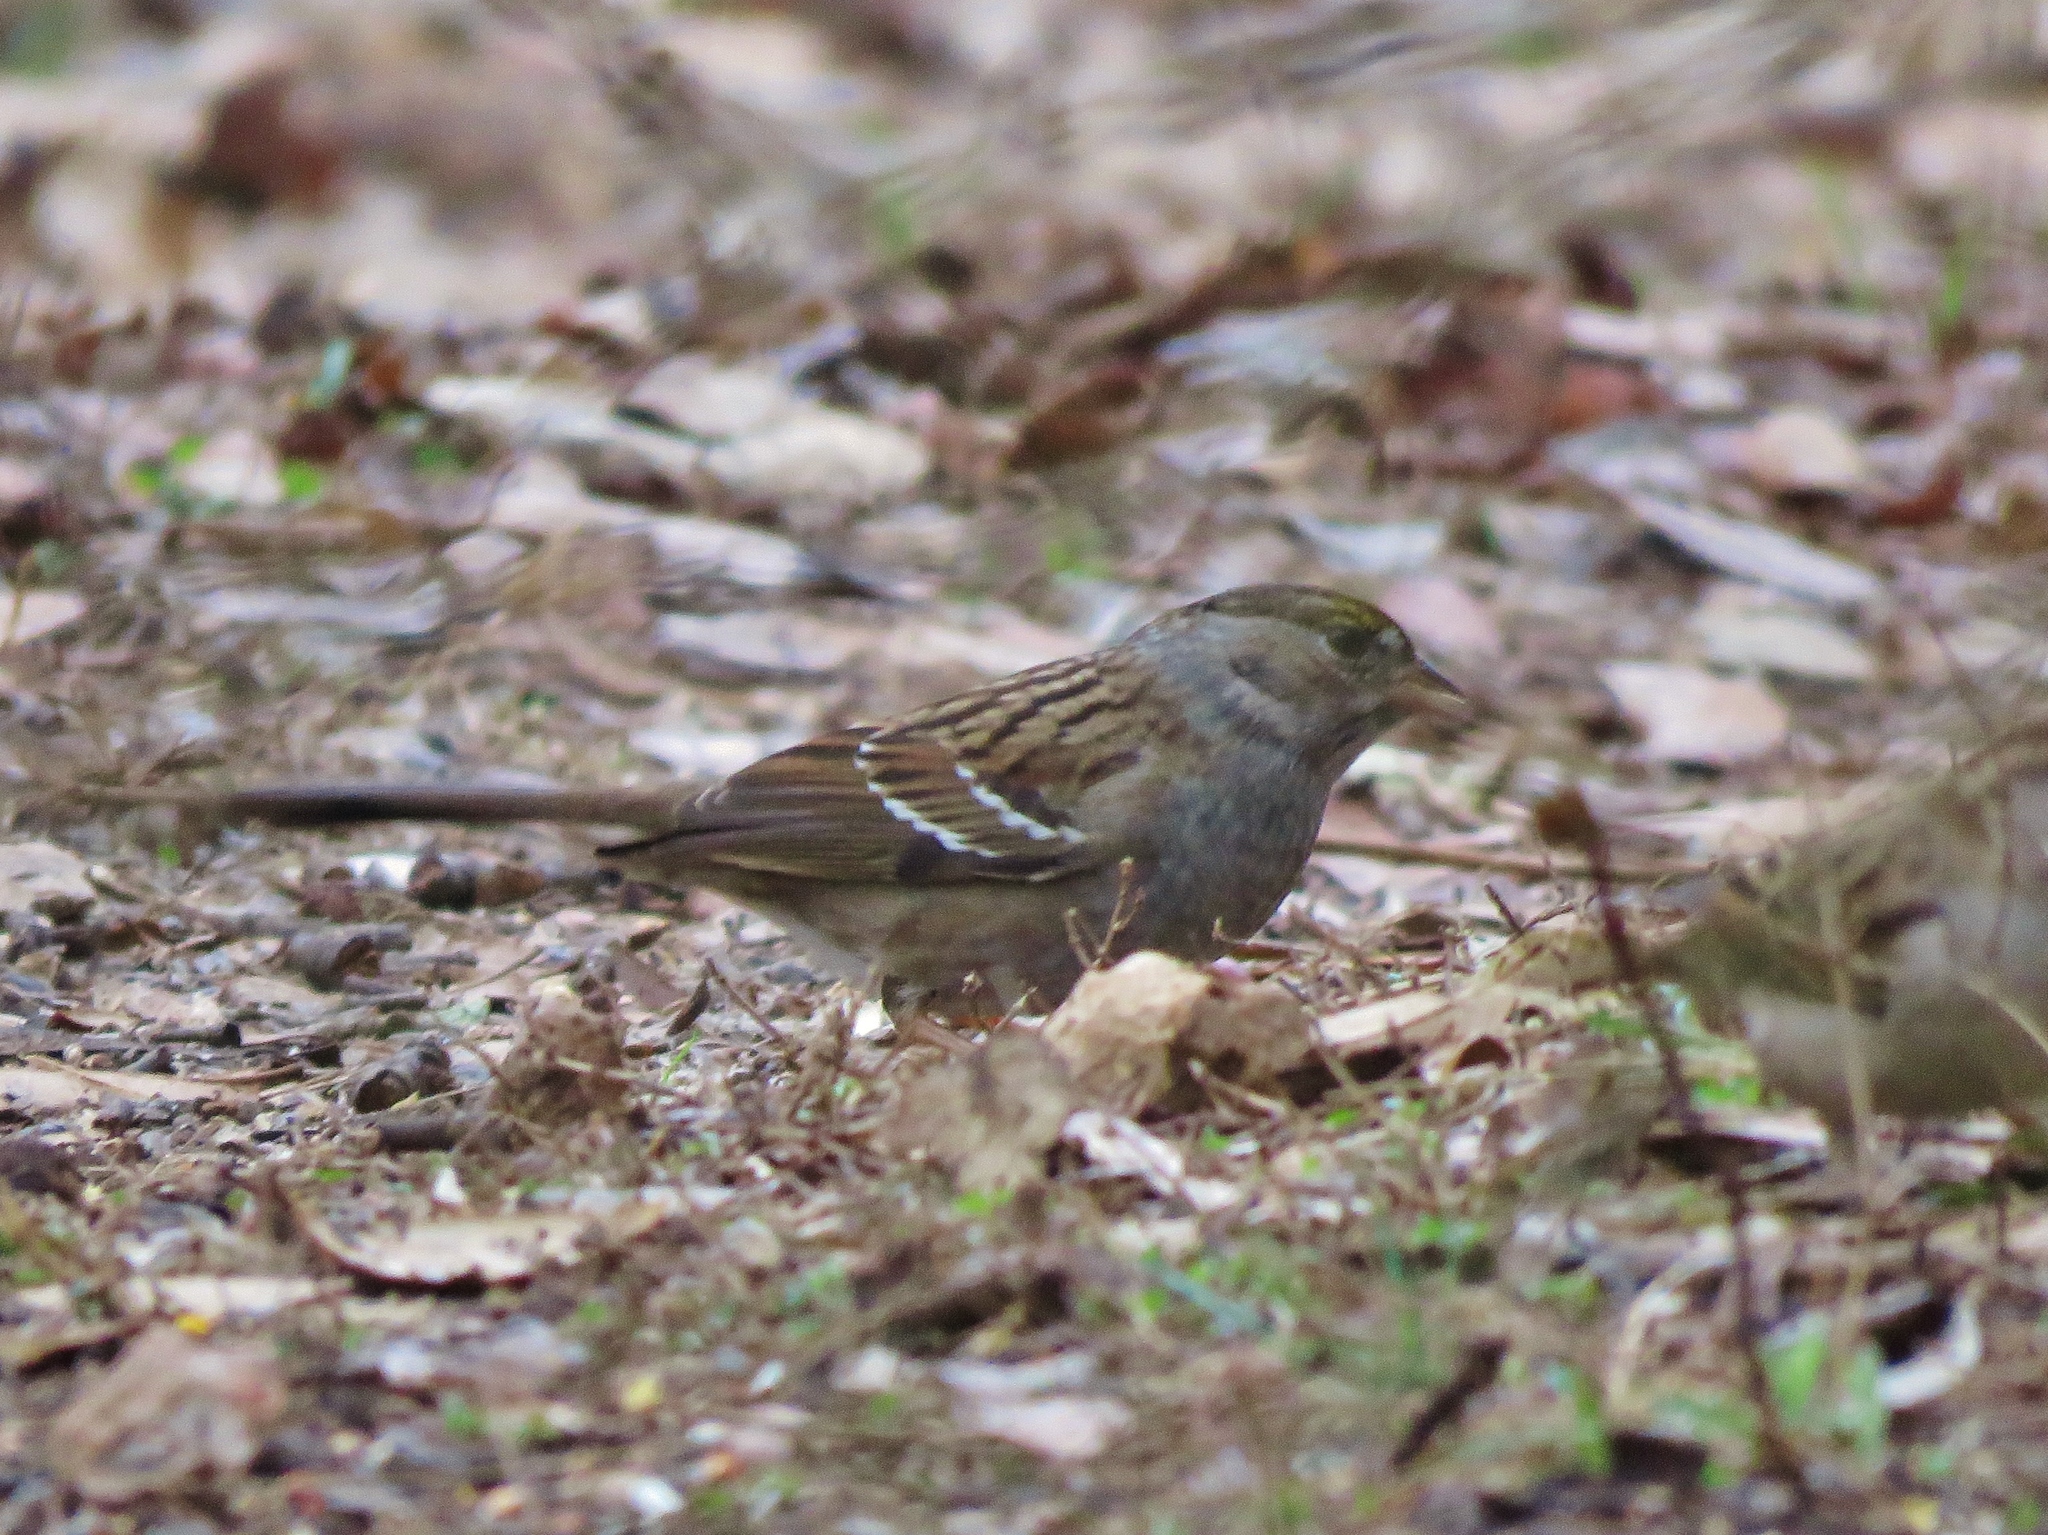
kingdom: Animalia
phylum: Chordata
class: Aves
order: Passeriformes
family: Passerellidae
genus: Zonotrichia
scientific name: Zonotrichia atricapilla
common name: Golden-crowned sparrow
